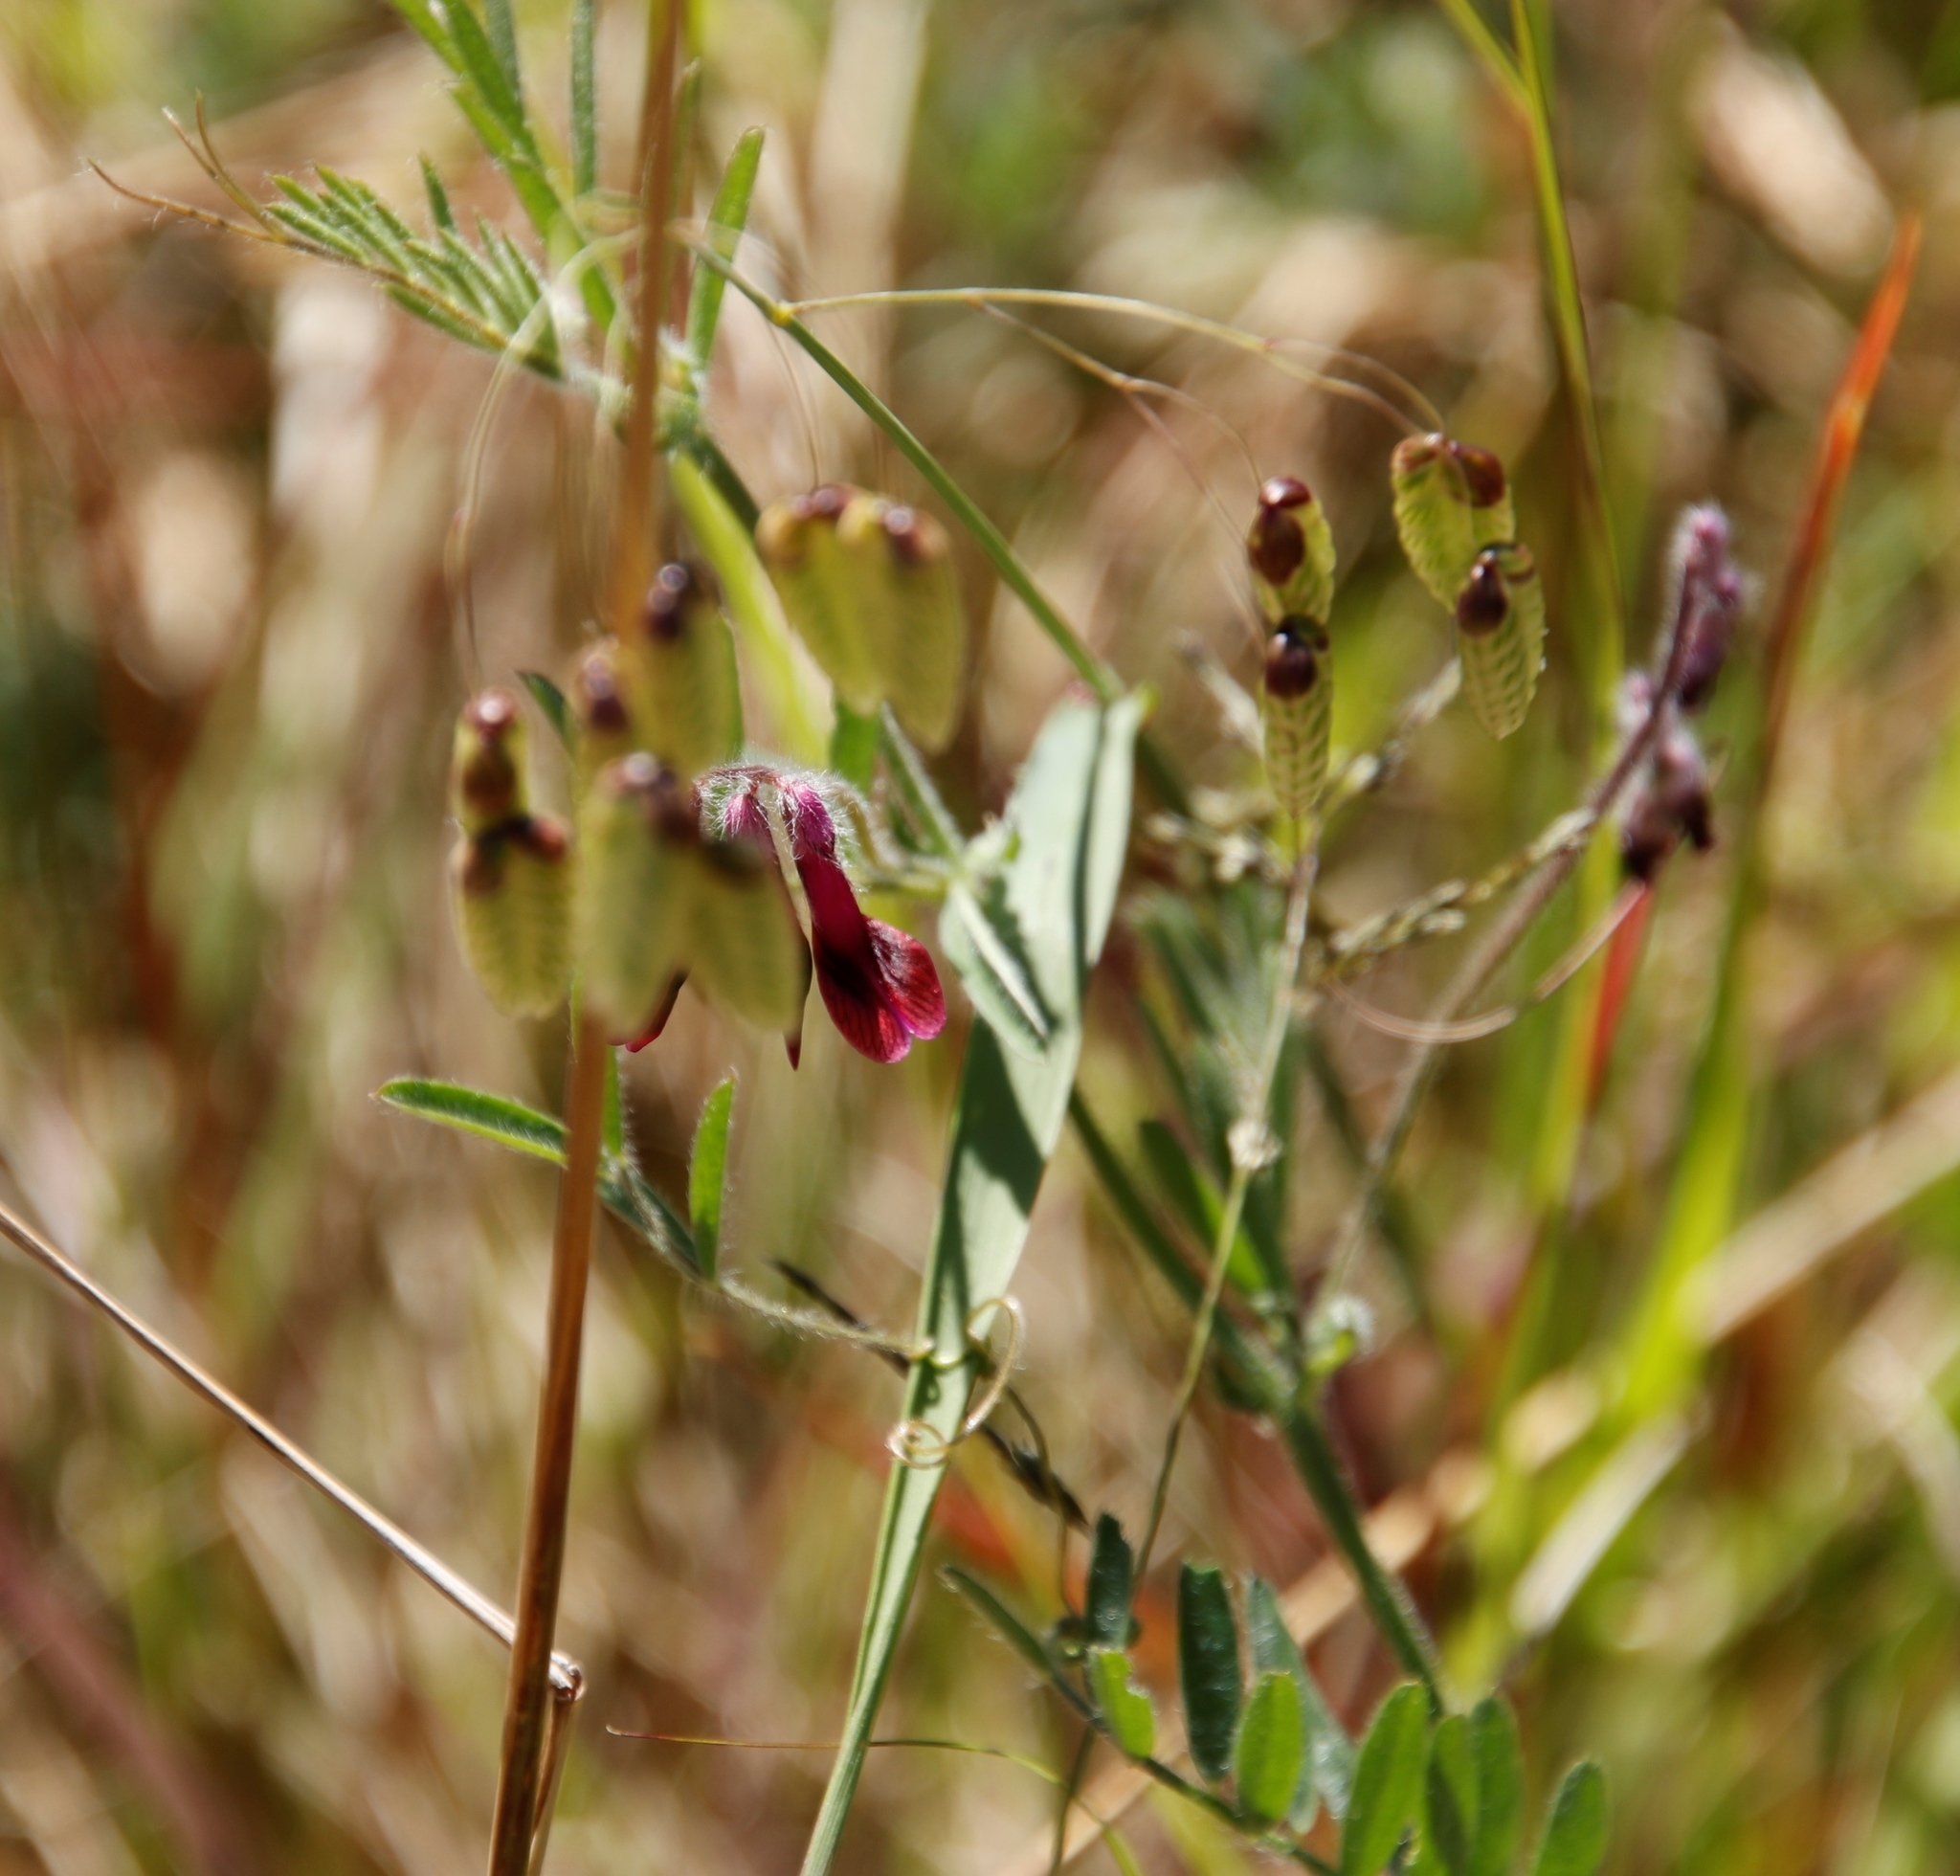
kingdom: Plantae
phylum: Tracheophyta
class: Magnoliopsida
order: Fabales
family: Fabaceae
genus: Vicia
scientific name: Vicia benghalensis
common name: Purple vetch
